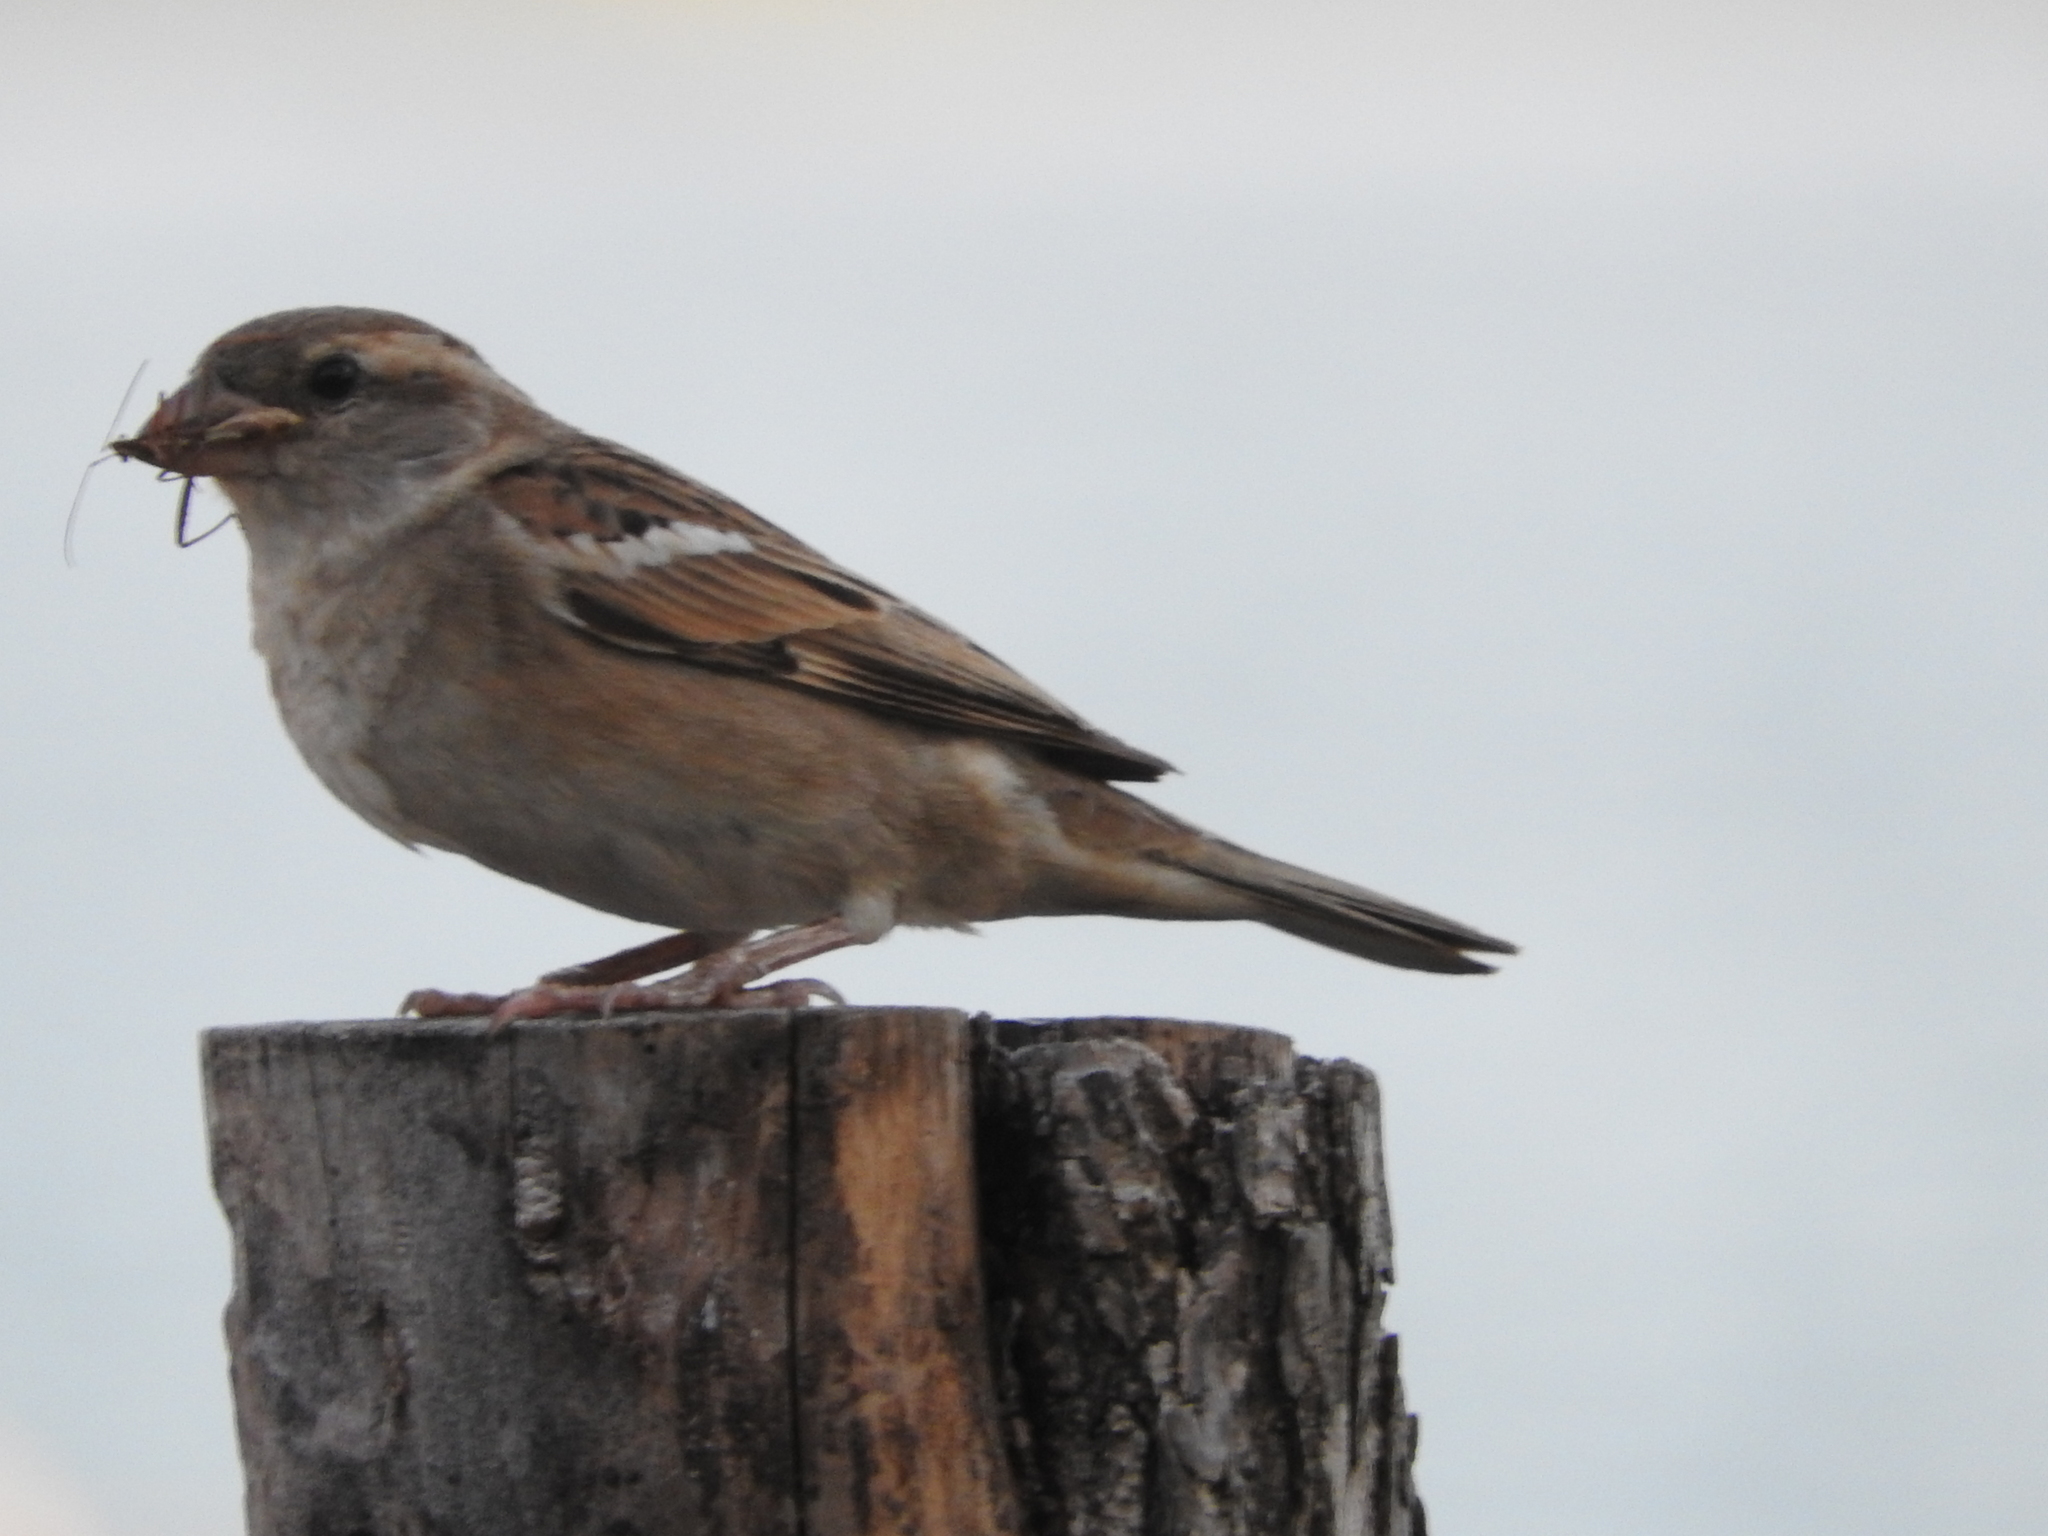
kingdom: Animalia
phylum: Chordata
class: Aves
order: Passeriformes
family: Passeridae
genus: Passer
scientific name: Passer domesticus
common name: House sparrow
